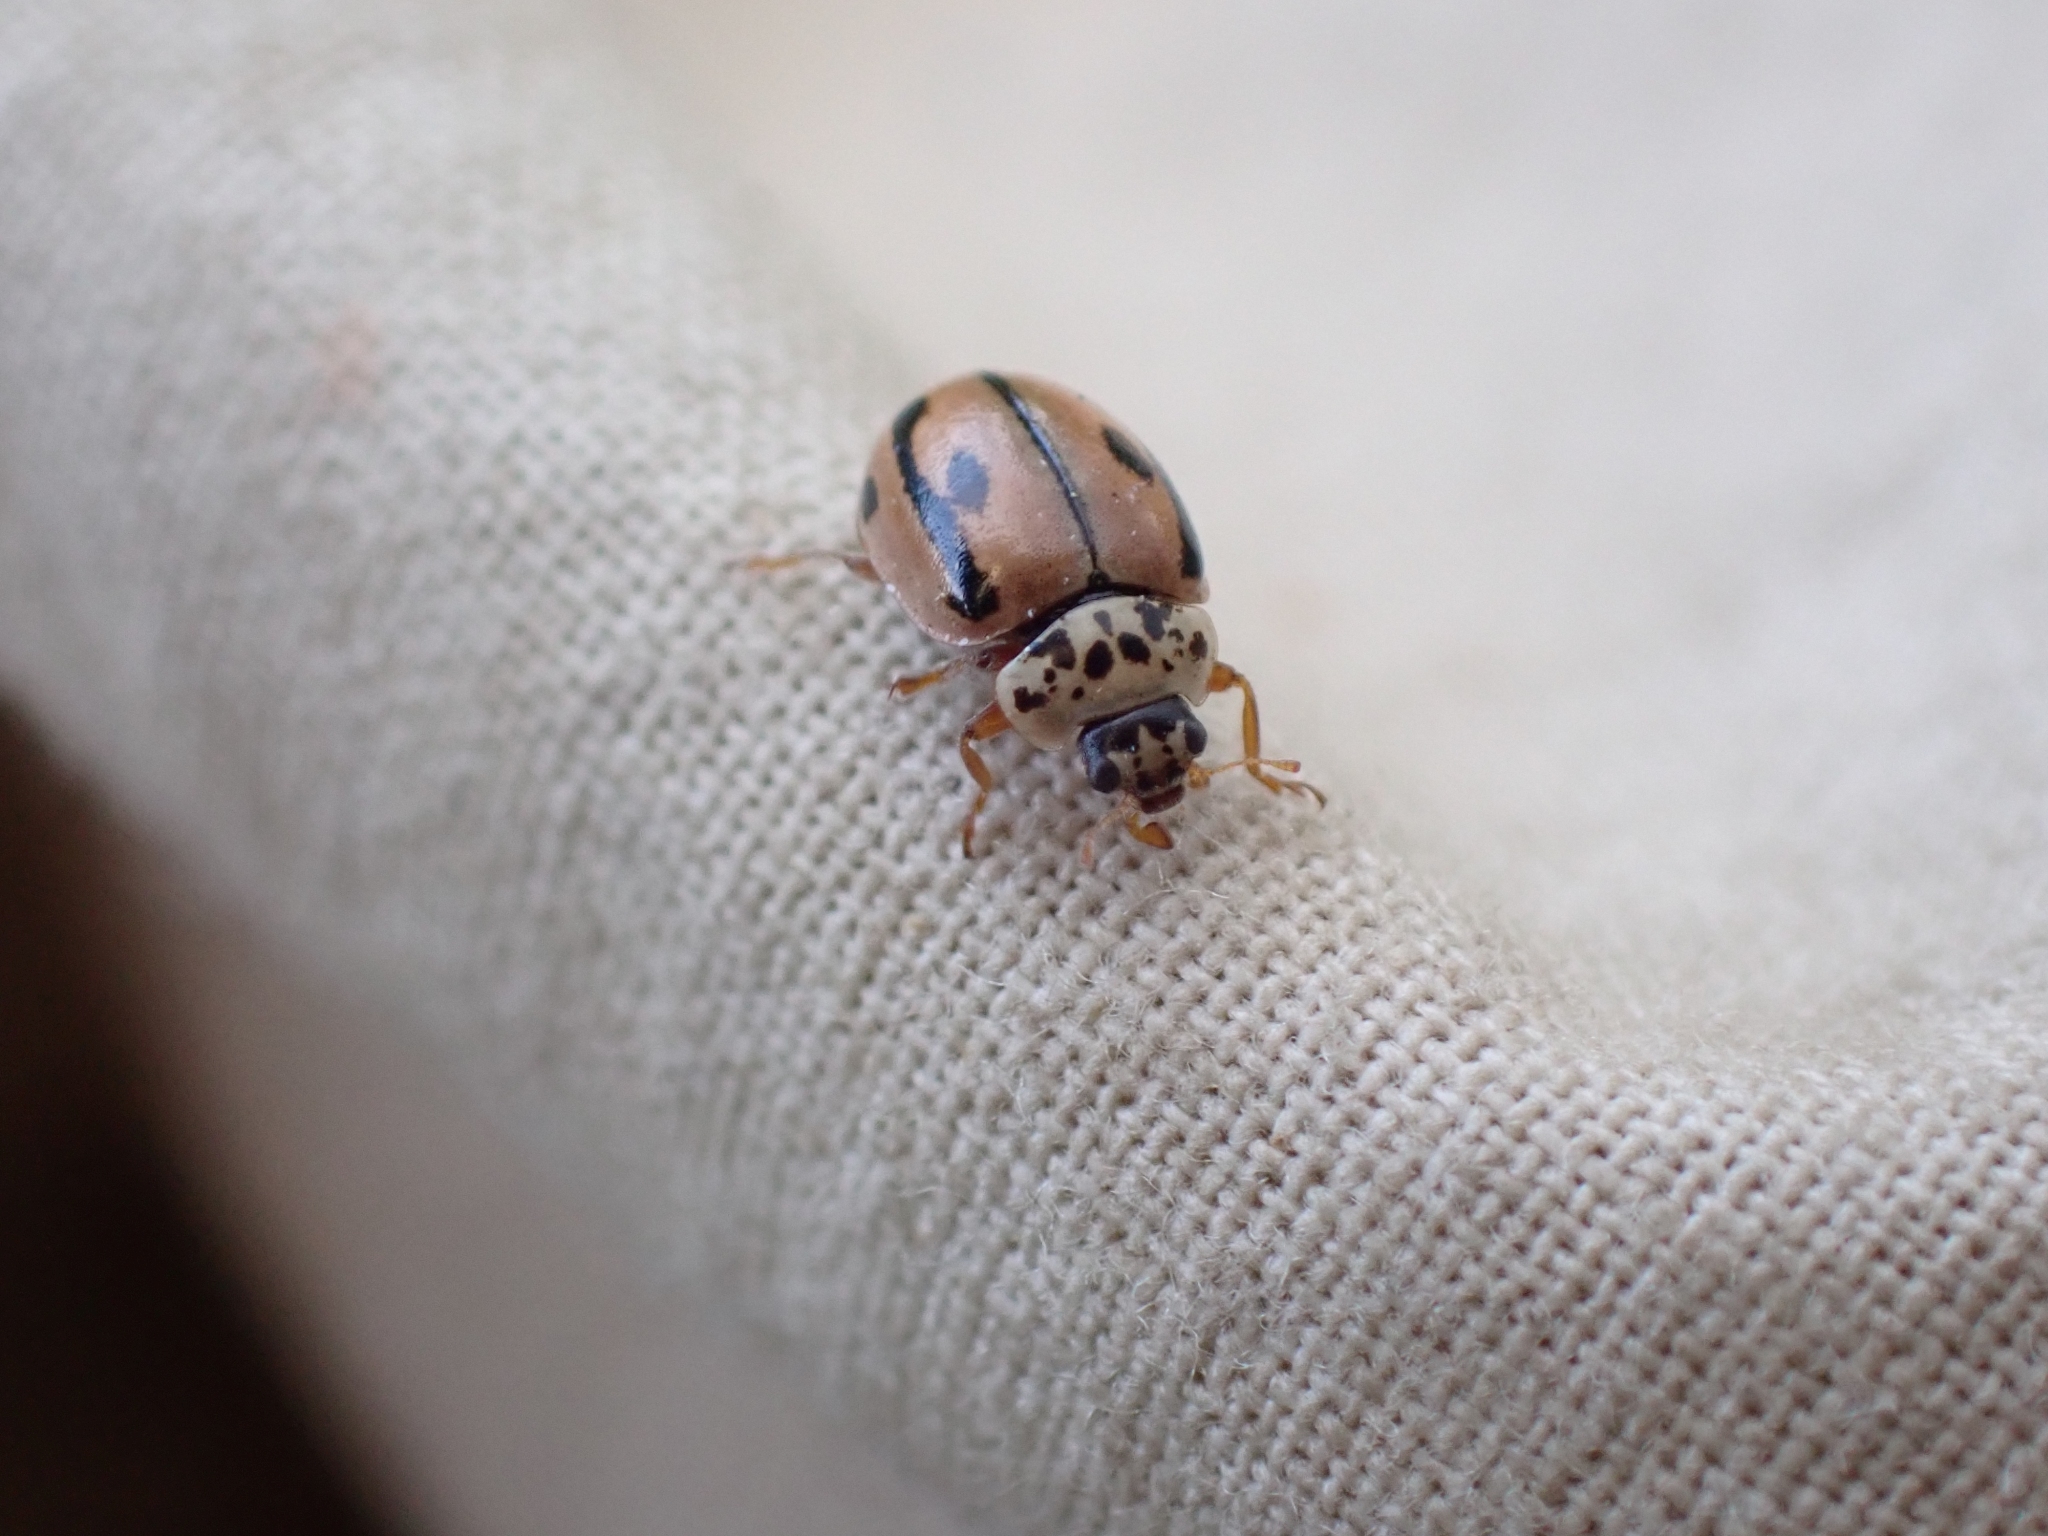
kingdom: Animalia
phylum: Arthropoda
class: Insecta
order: Coleoptera
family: Coccinellidae
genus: Mulsantina
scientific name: Mulsantina hudsonica
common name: Hudsonian ladybird
